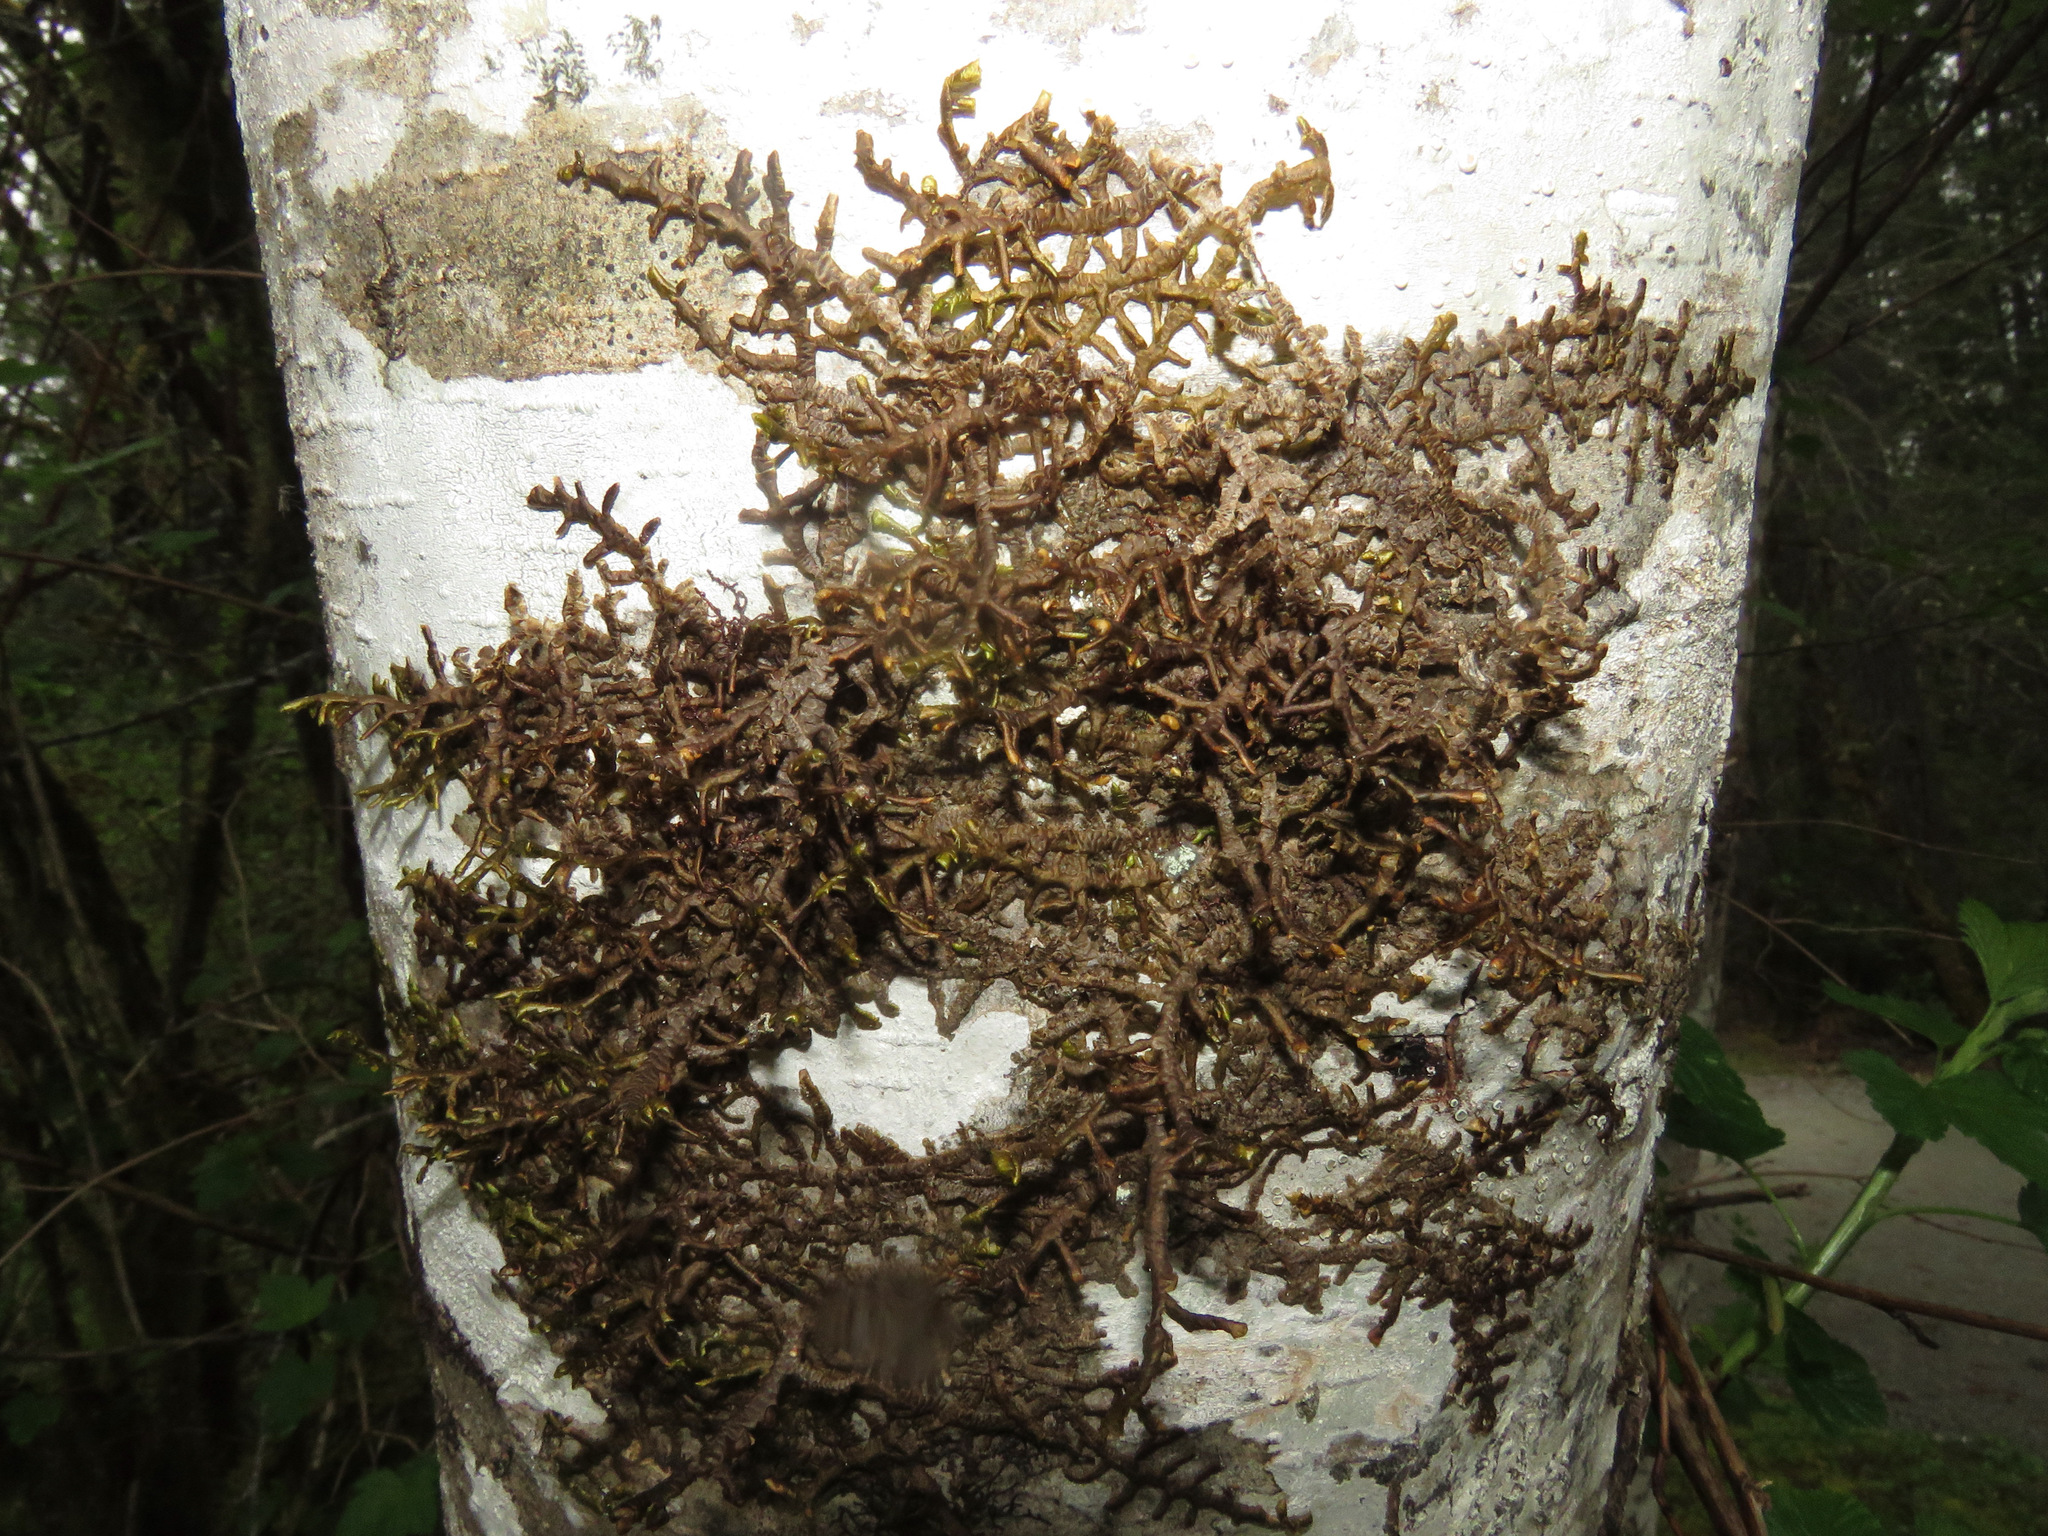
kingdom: Plantae
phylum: Marchantiophyta
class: Jungermanniopsida
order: Porellales
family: Porellaceae
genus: Porella
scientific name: Porella navicularis
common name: Tree ruffle liverwort
